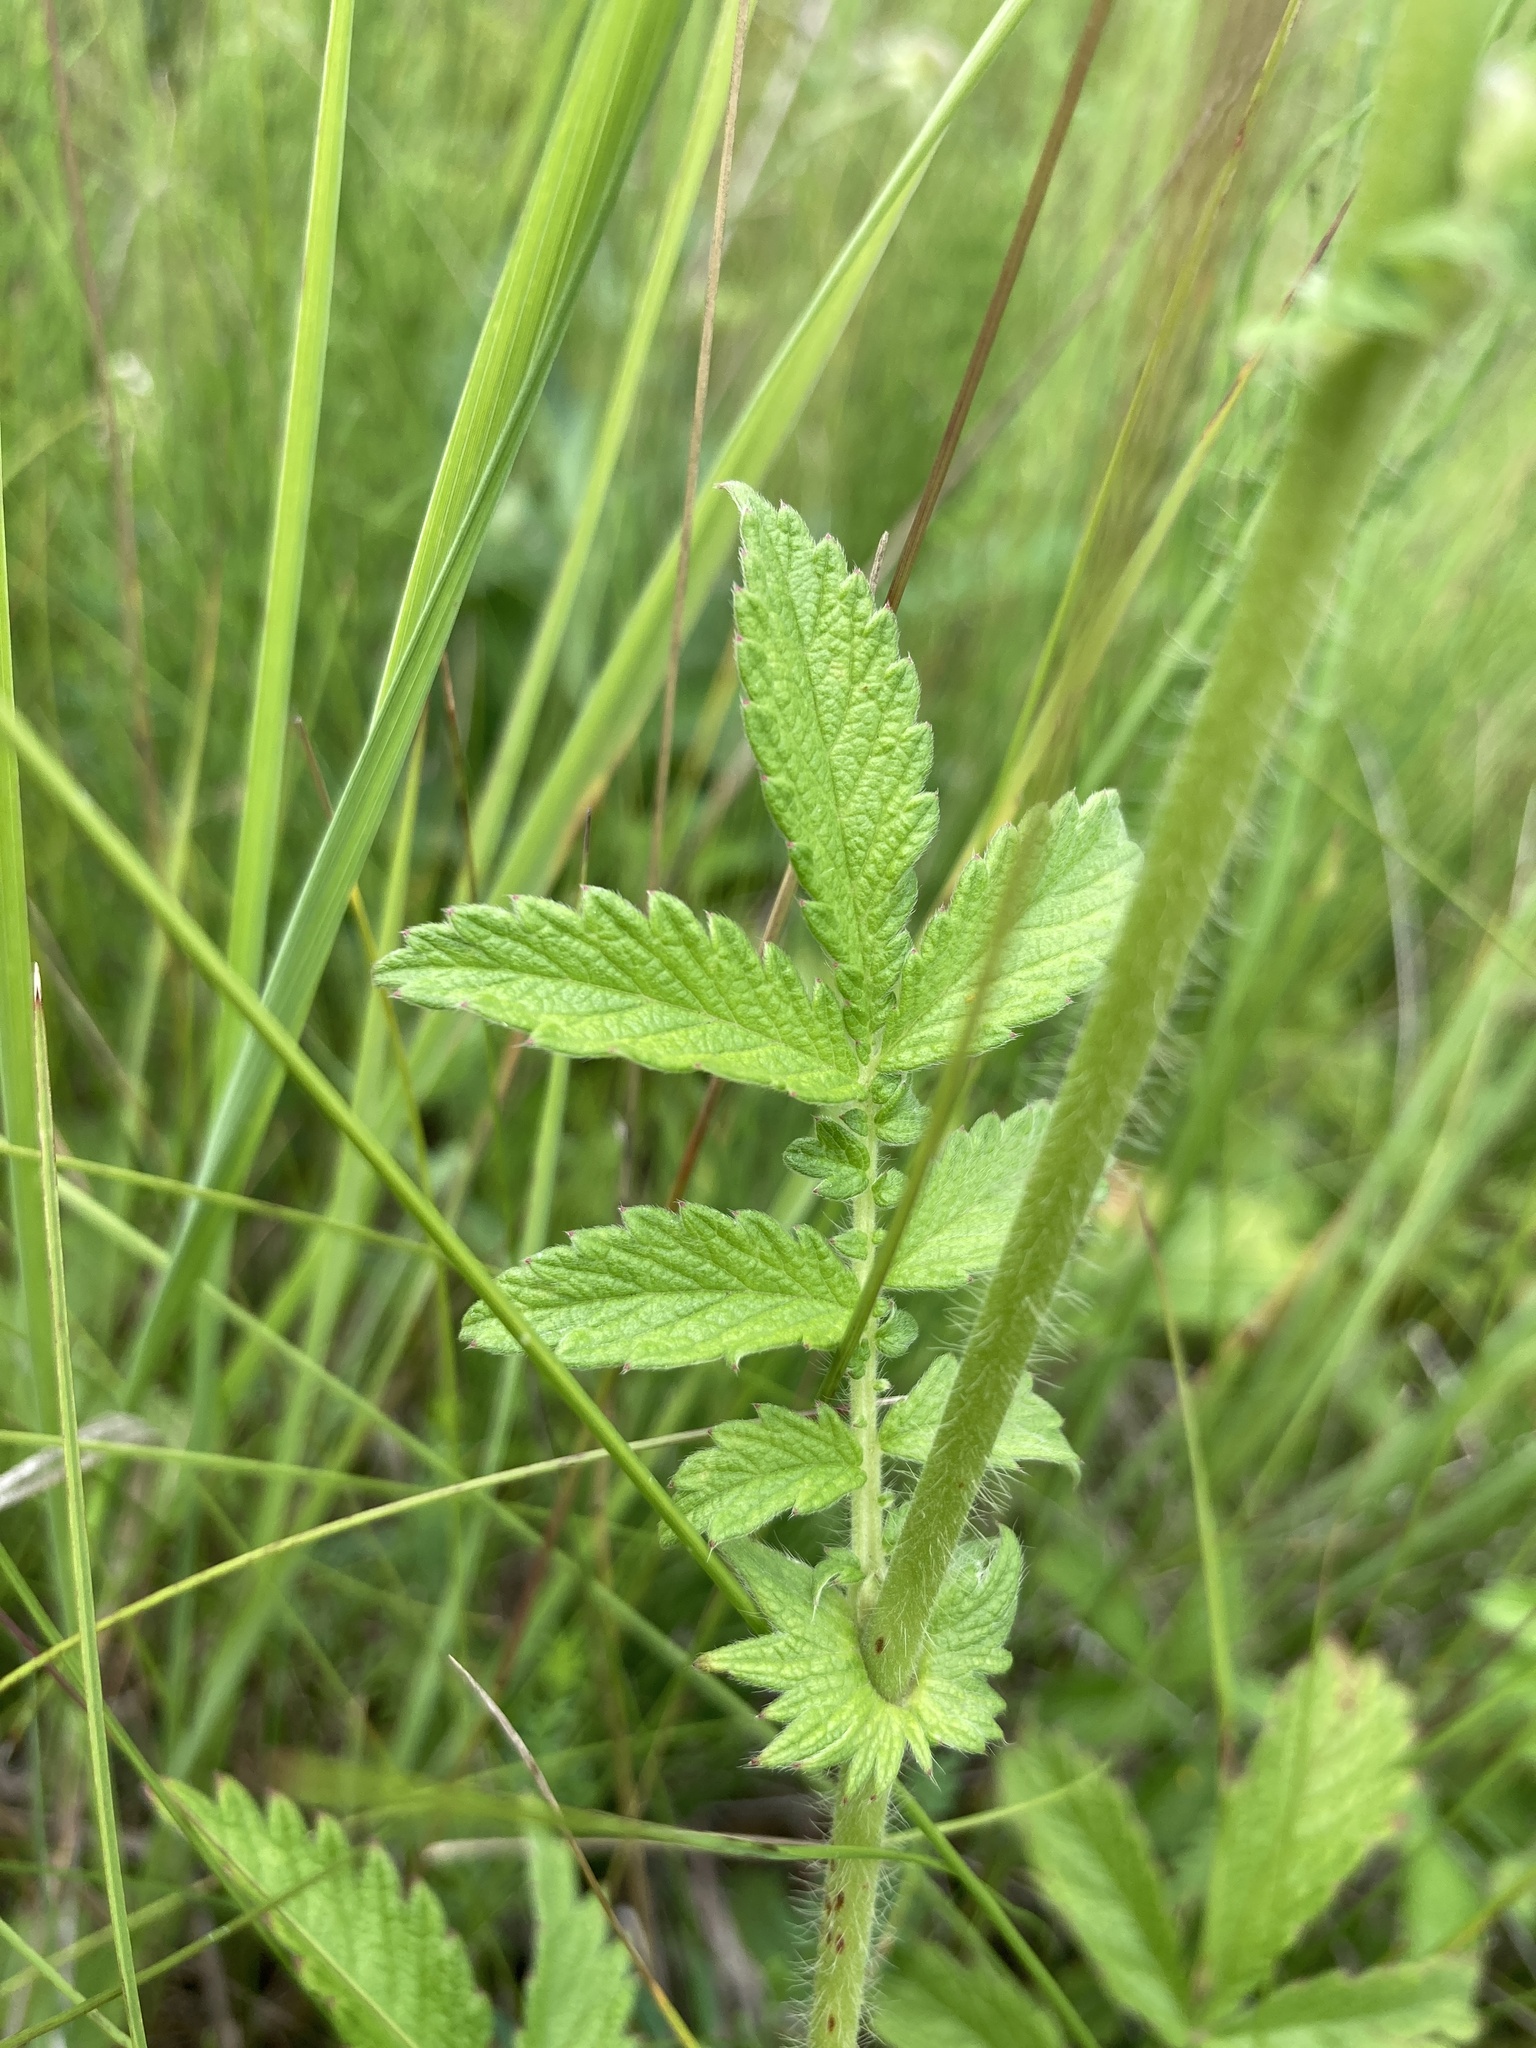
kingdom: Plantae
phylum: Tracheophyta
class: Magnoliopsida
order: Rosales
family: Rosaceae
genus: Agrimonia
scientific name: Agrimonia eupatoria
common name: Agrimony
